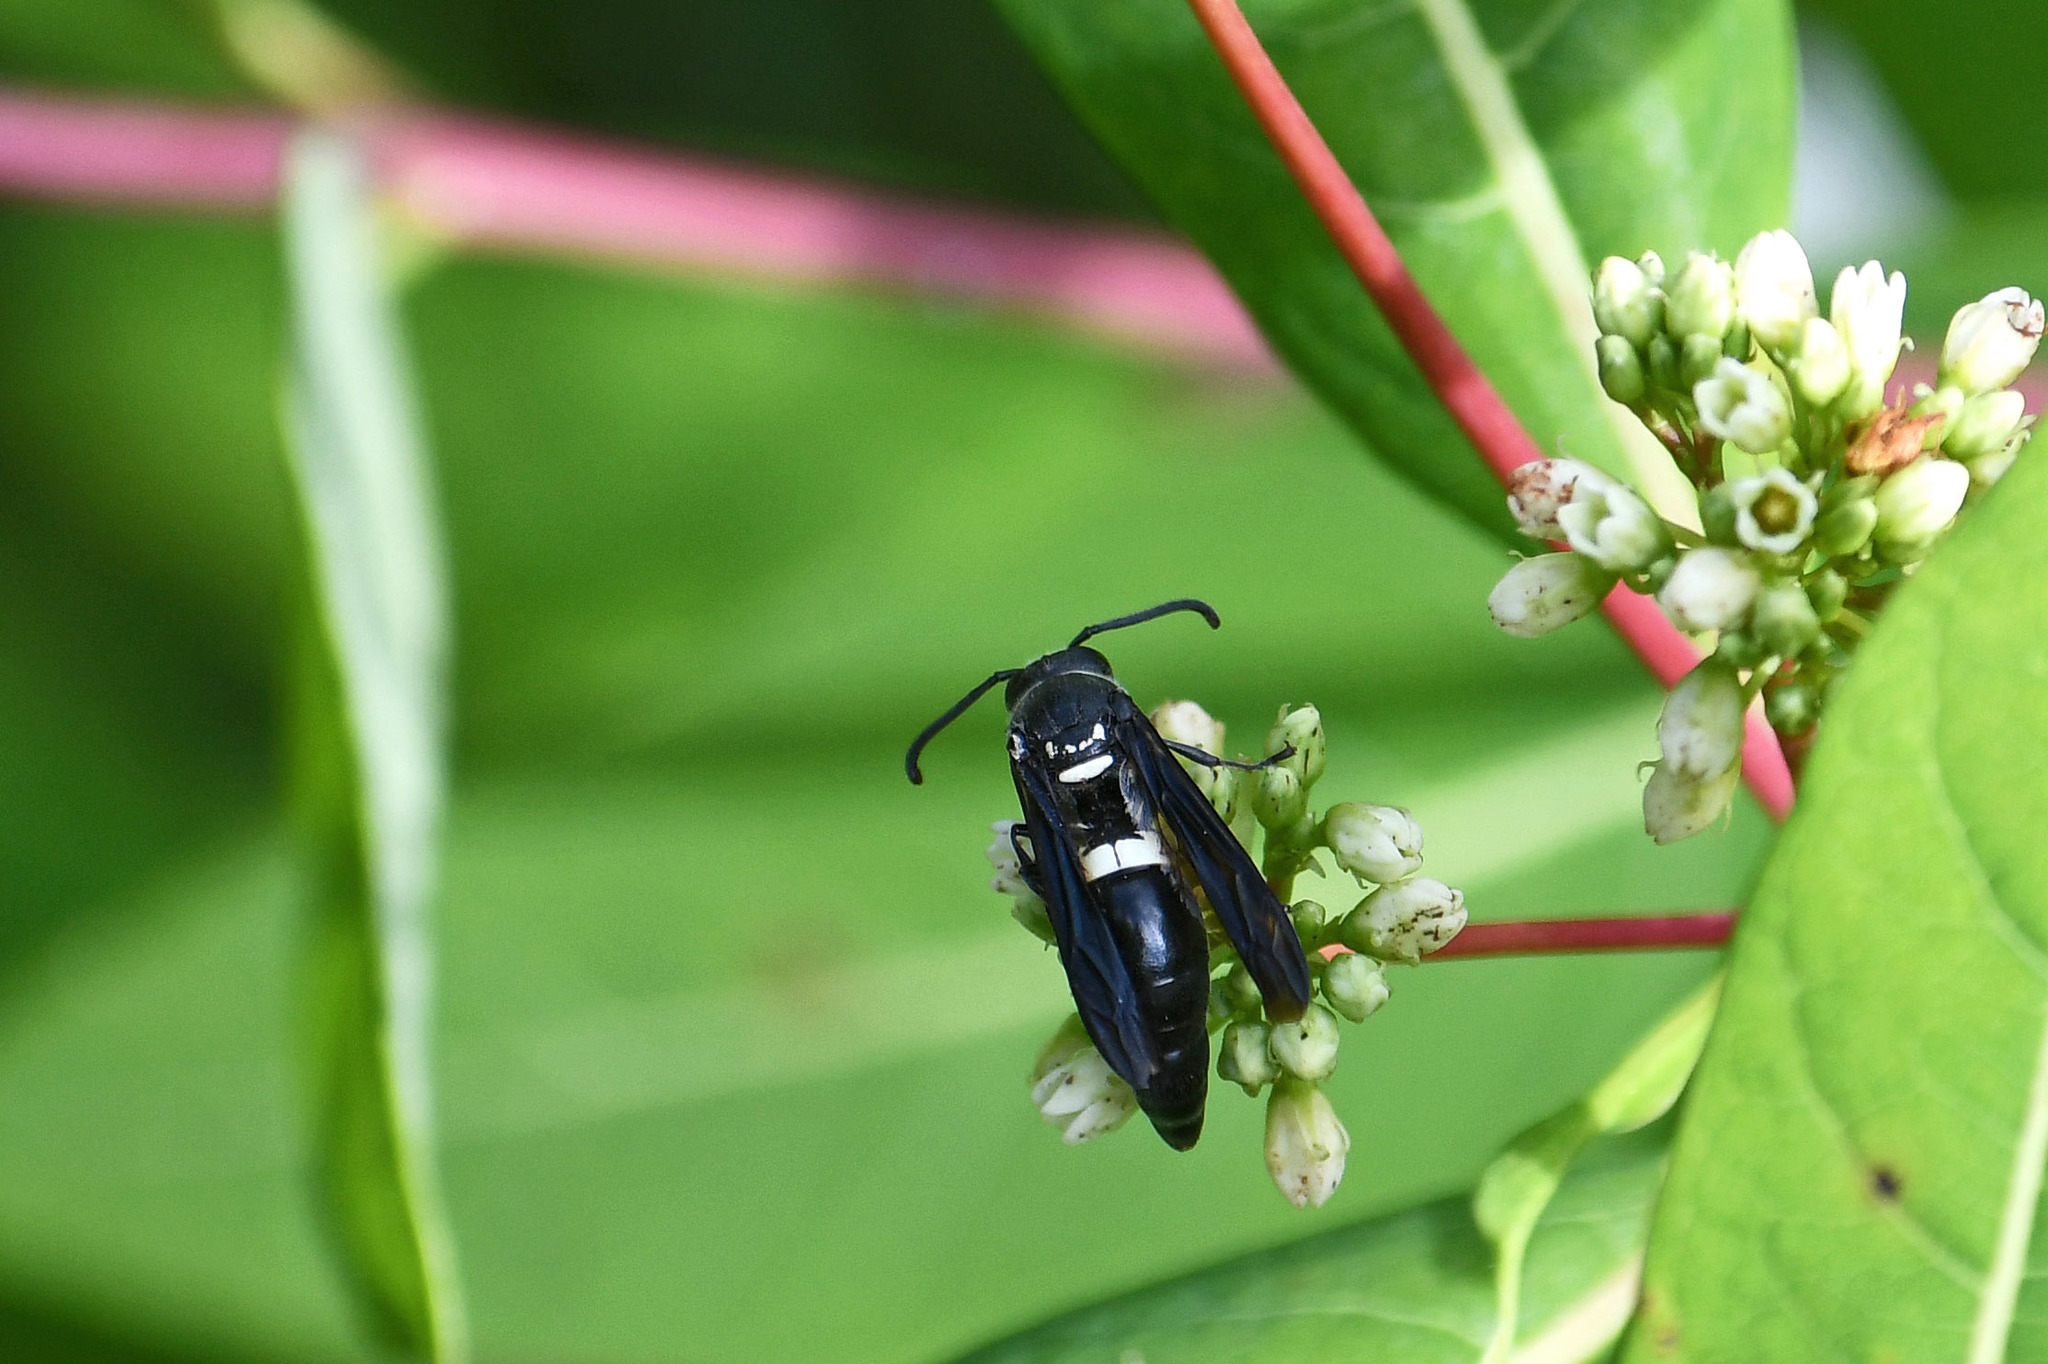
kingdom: Animalia
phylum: Arthropoda
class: Insecta
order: Hymenoptera
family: Eumenidae
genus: Monobia
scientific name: Monobia quadridens
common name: Four-toothed mason wasp
